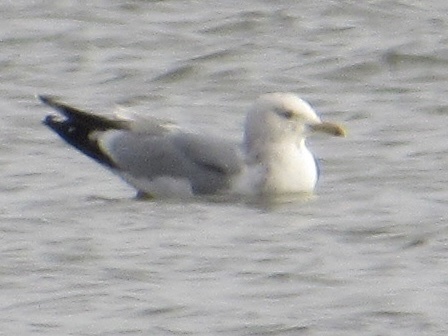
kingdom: Animalia
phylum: Chordata
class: Aves
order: Charadriiformes
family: Laridae
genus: Larus
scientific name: Larus argentatus
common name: Herring gull
